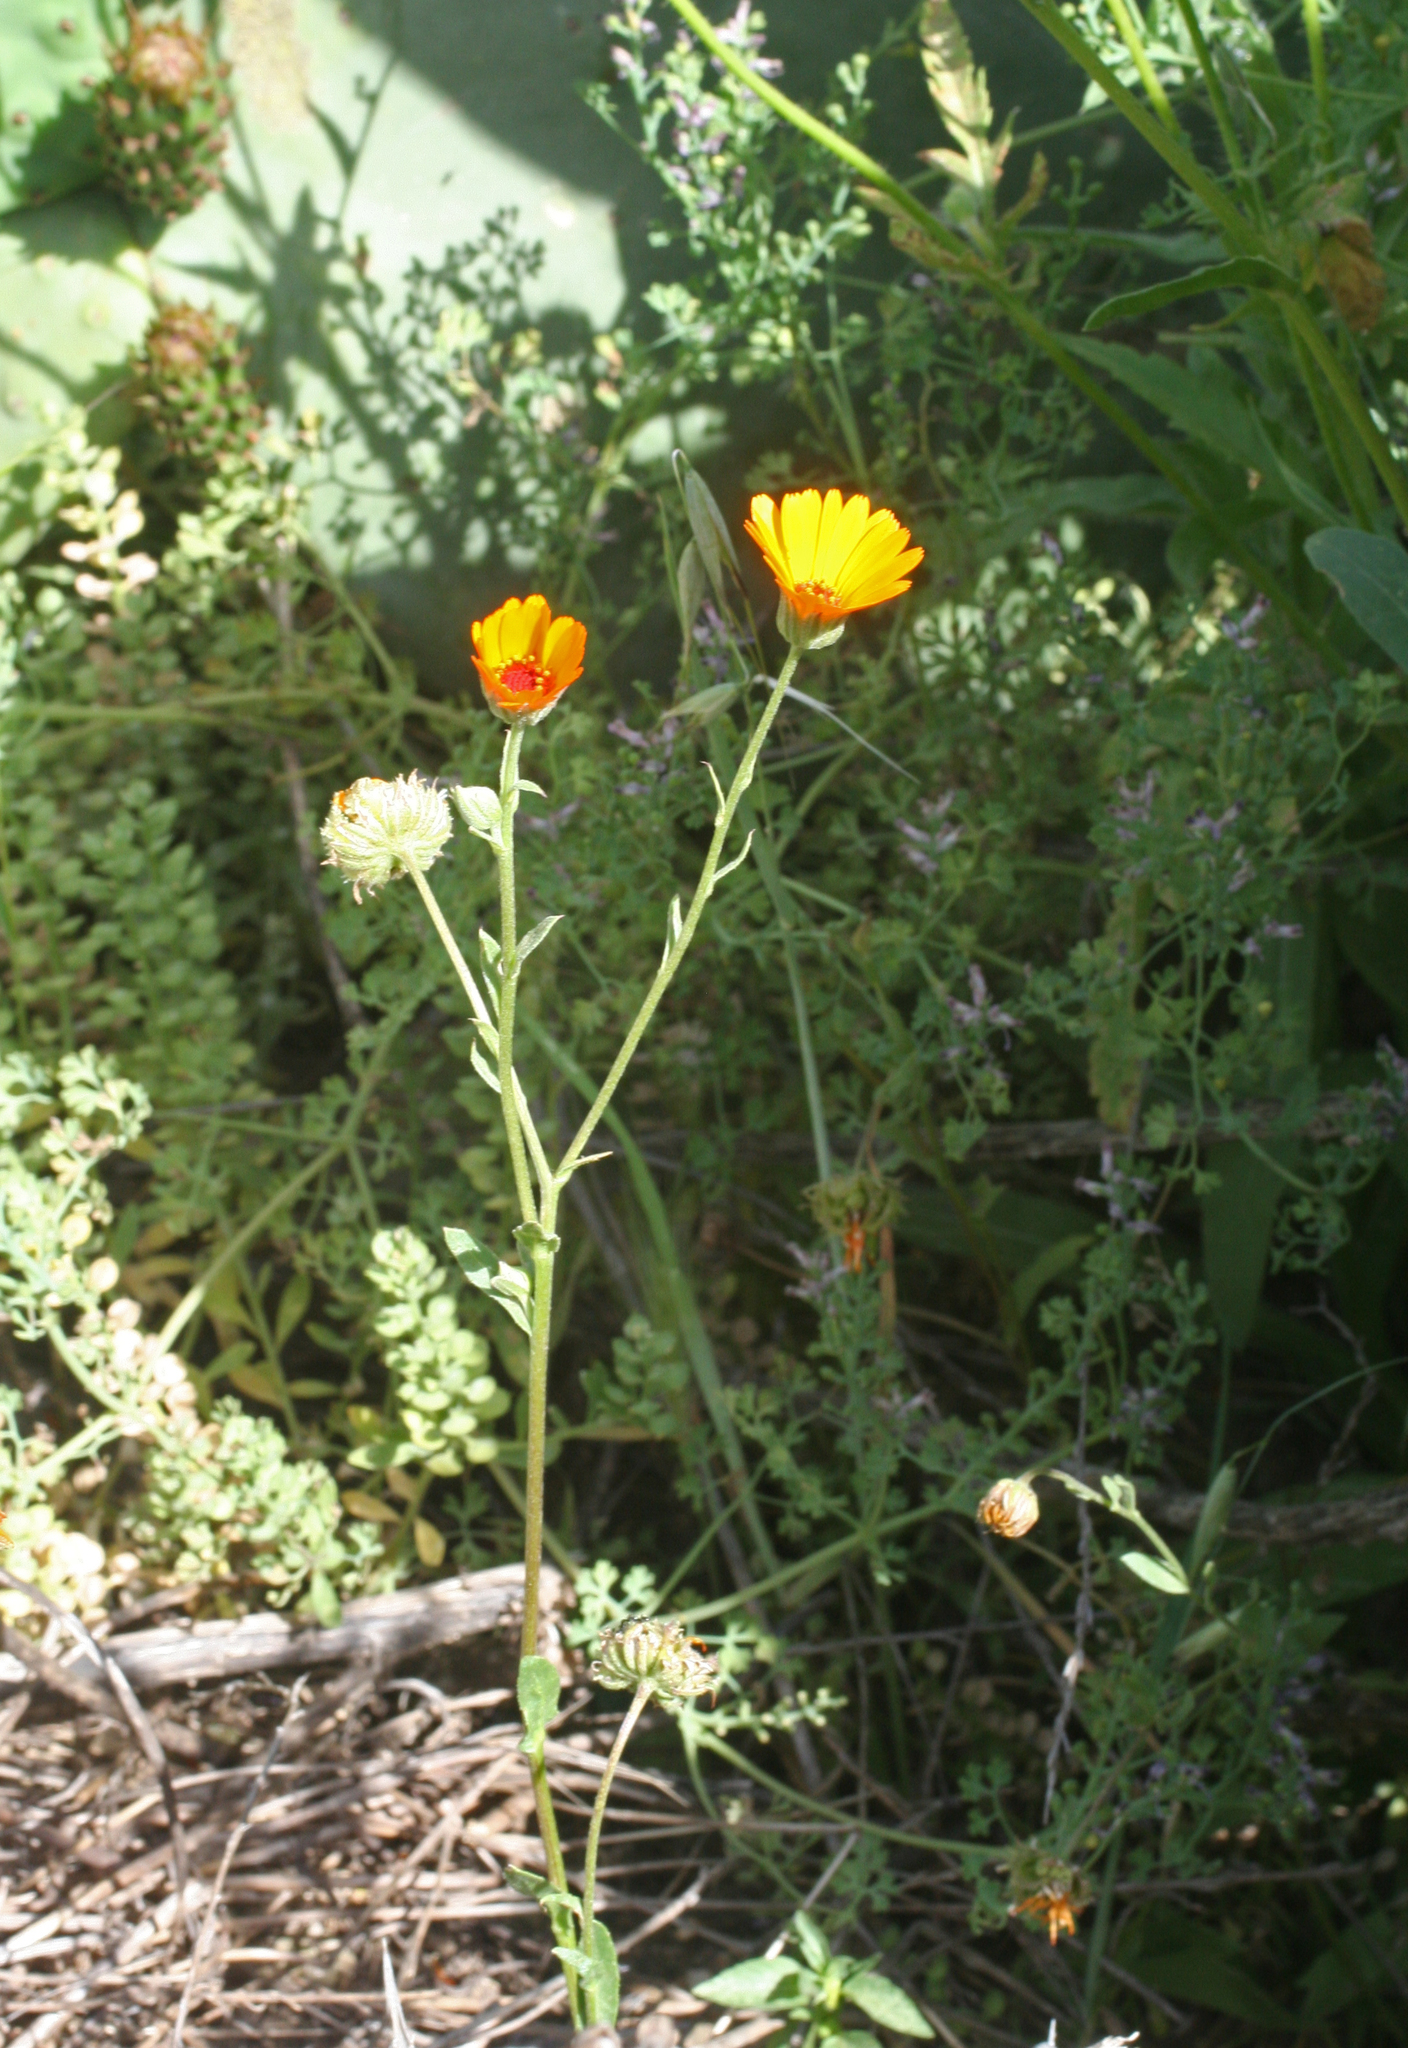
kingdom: Plantae
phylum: Tracheophyta
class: Magnoliopsida
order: Asterales
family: Asteraceae
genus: Calendula
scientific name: Calendula arvensis
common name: Field marigold
